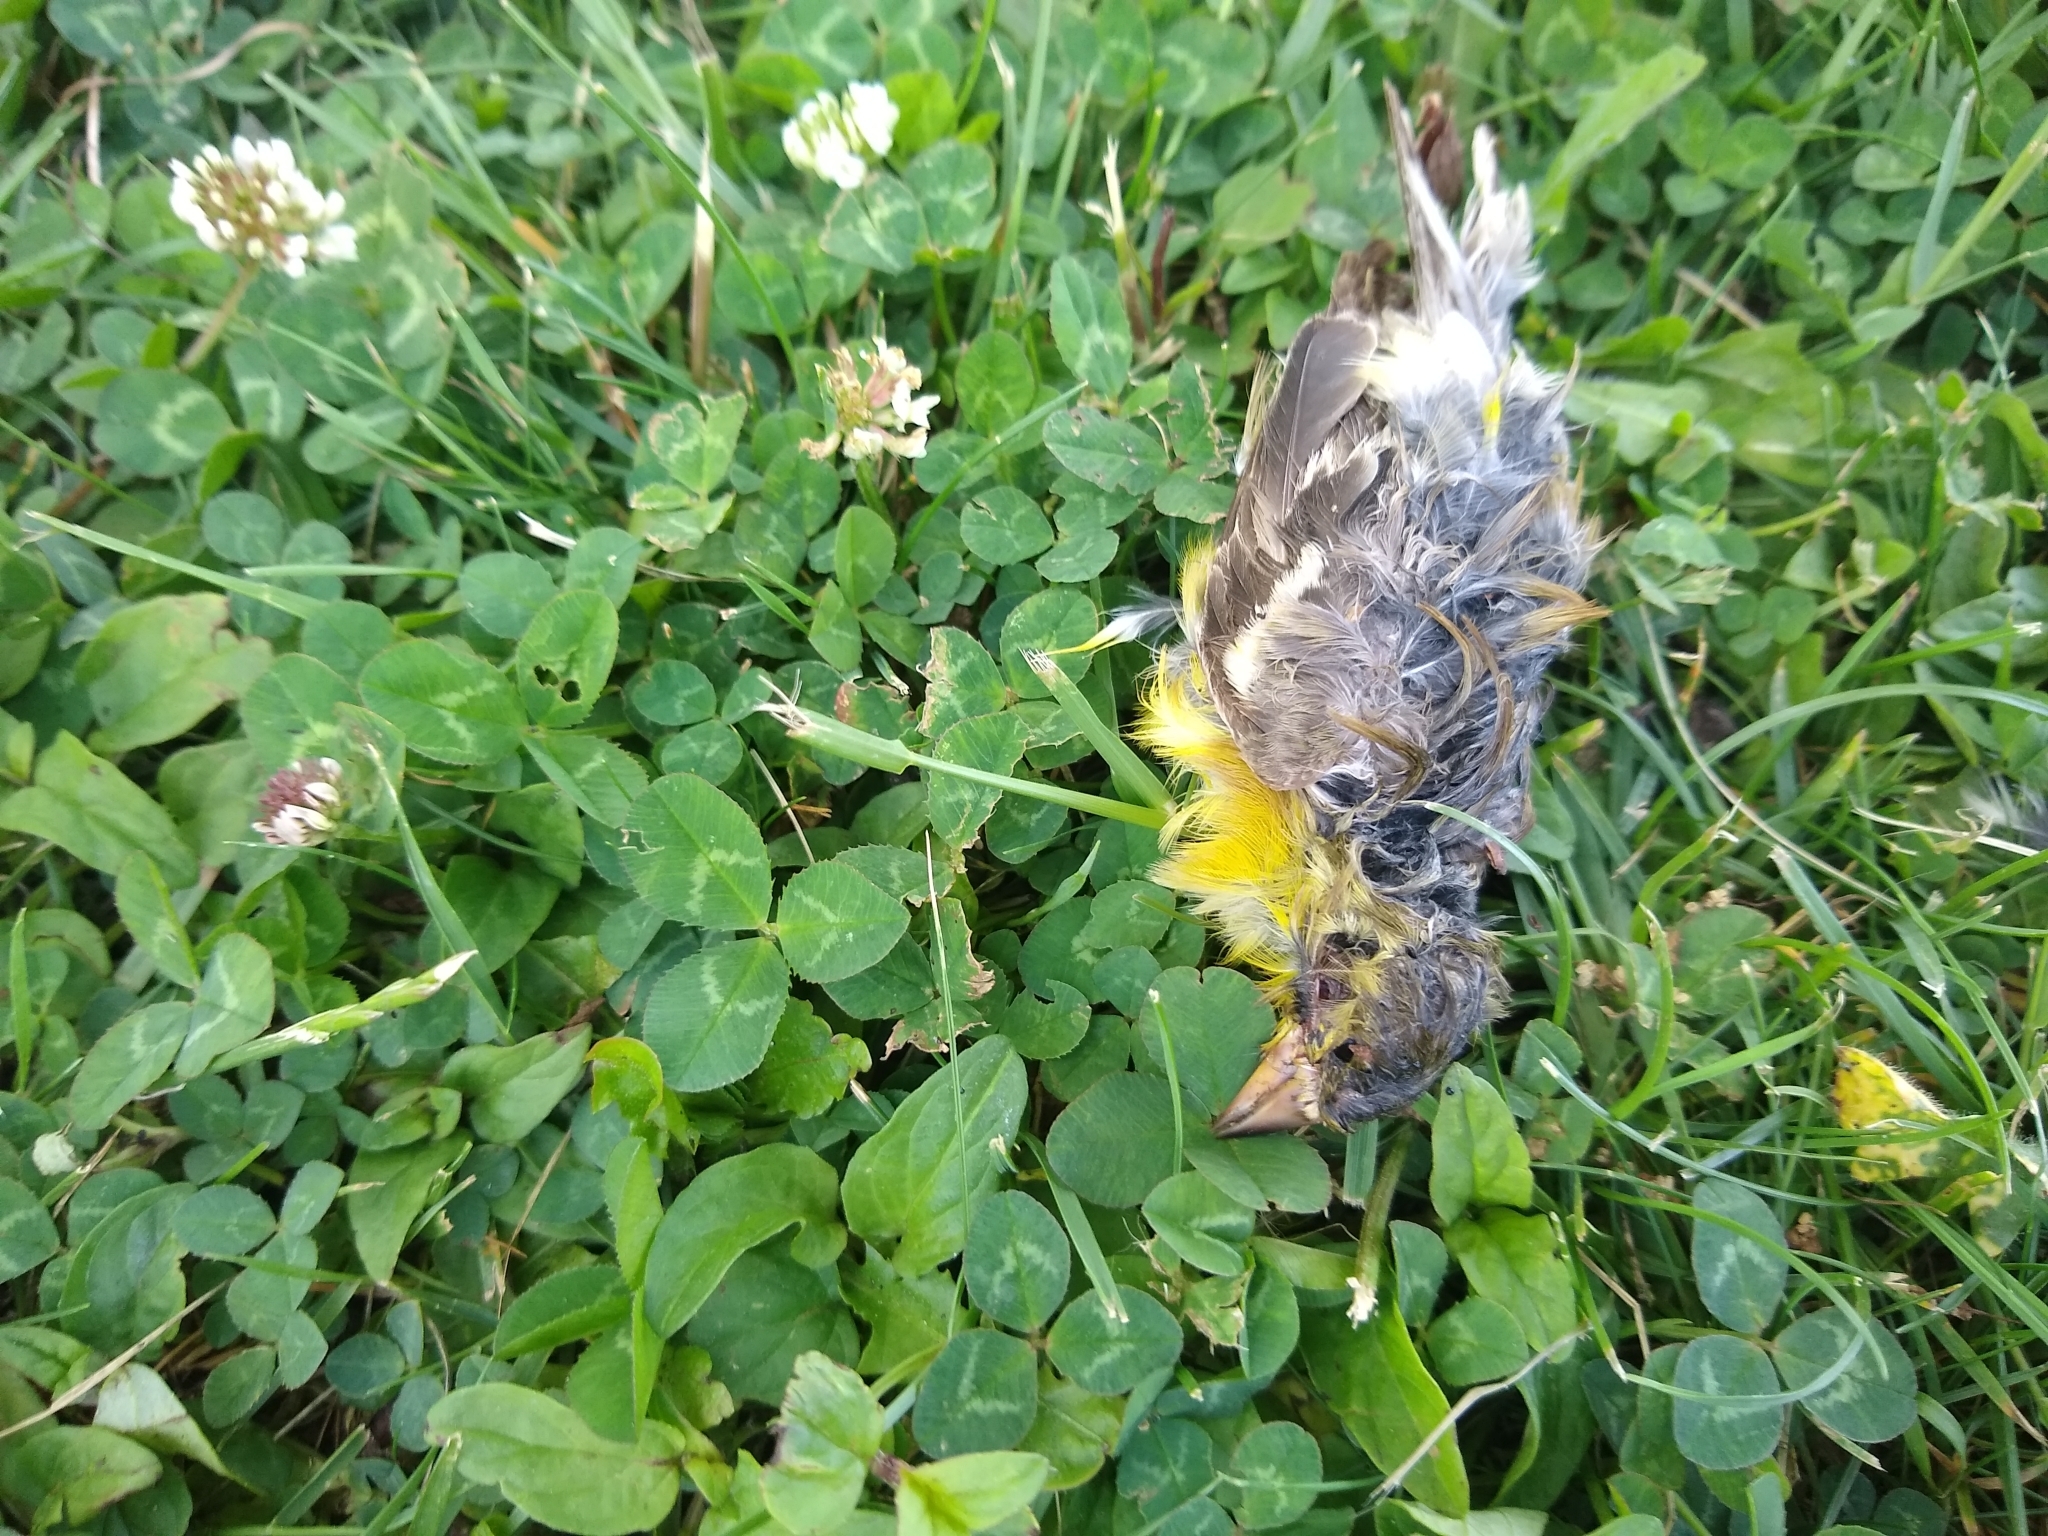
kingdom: Animalia
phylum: Chordata
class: Aves
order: Passeriformes
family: Fringillidae
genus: Spinus
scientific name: Spinus psaltria
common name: Lesser goldfinch
